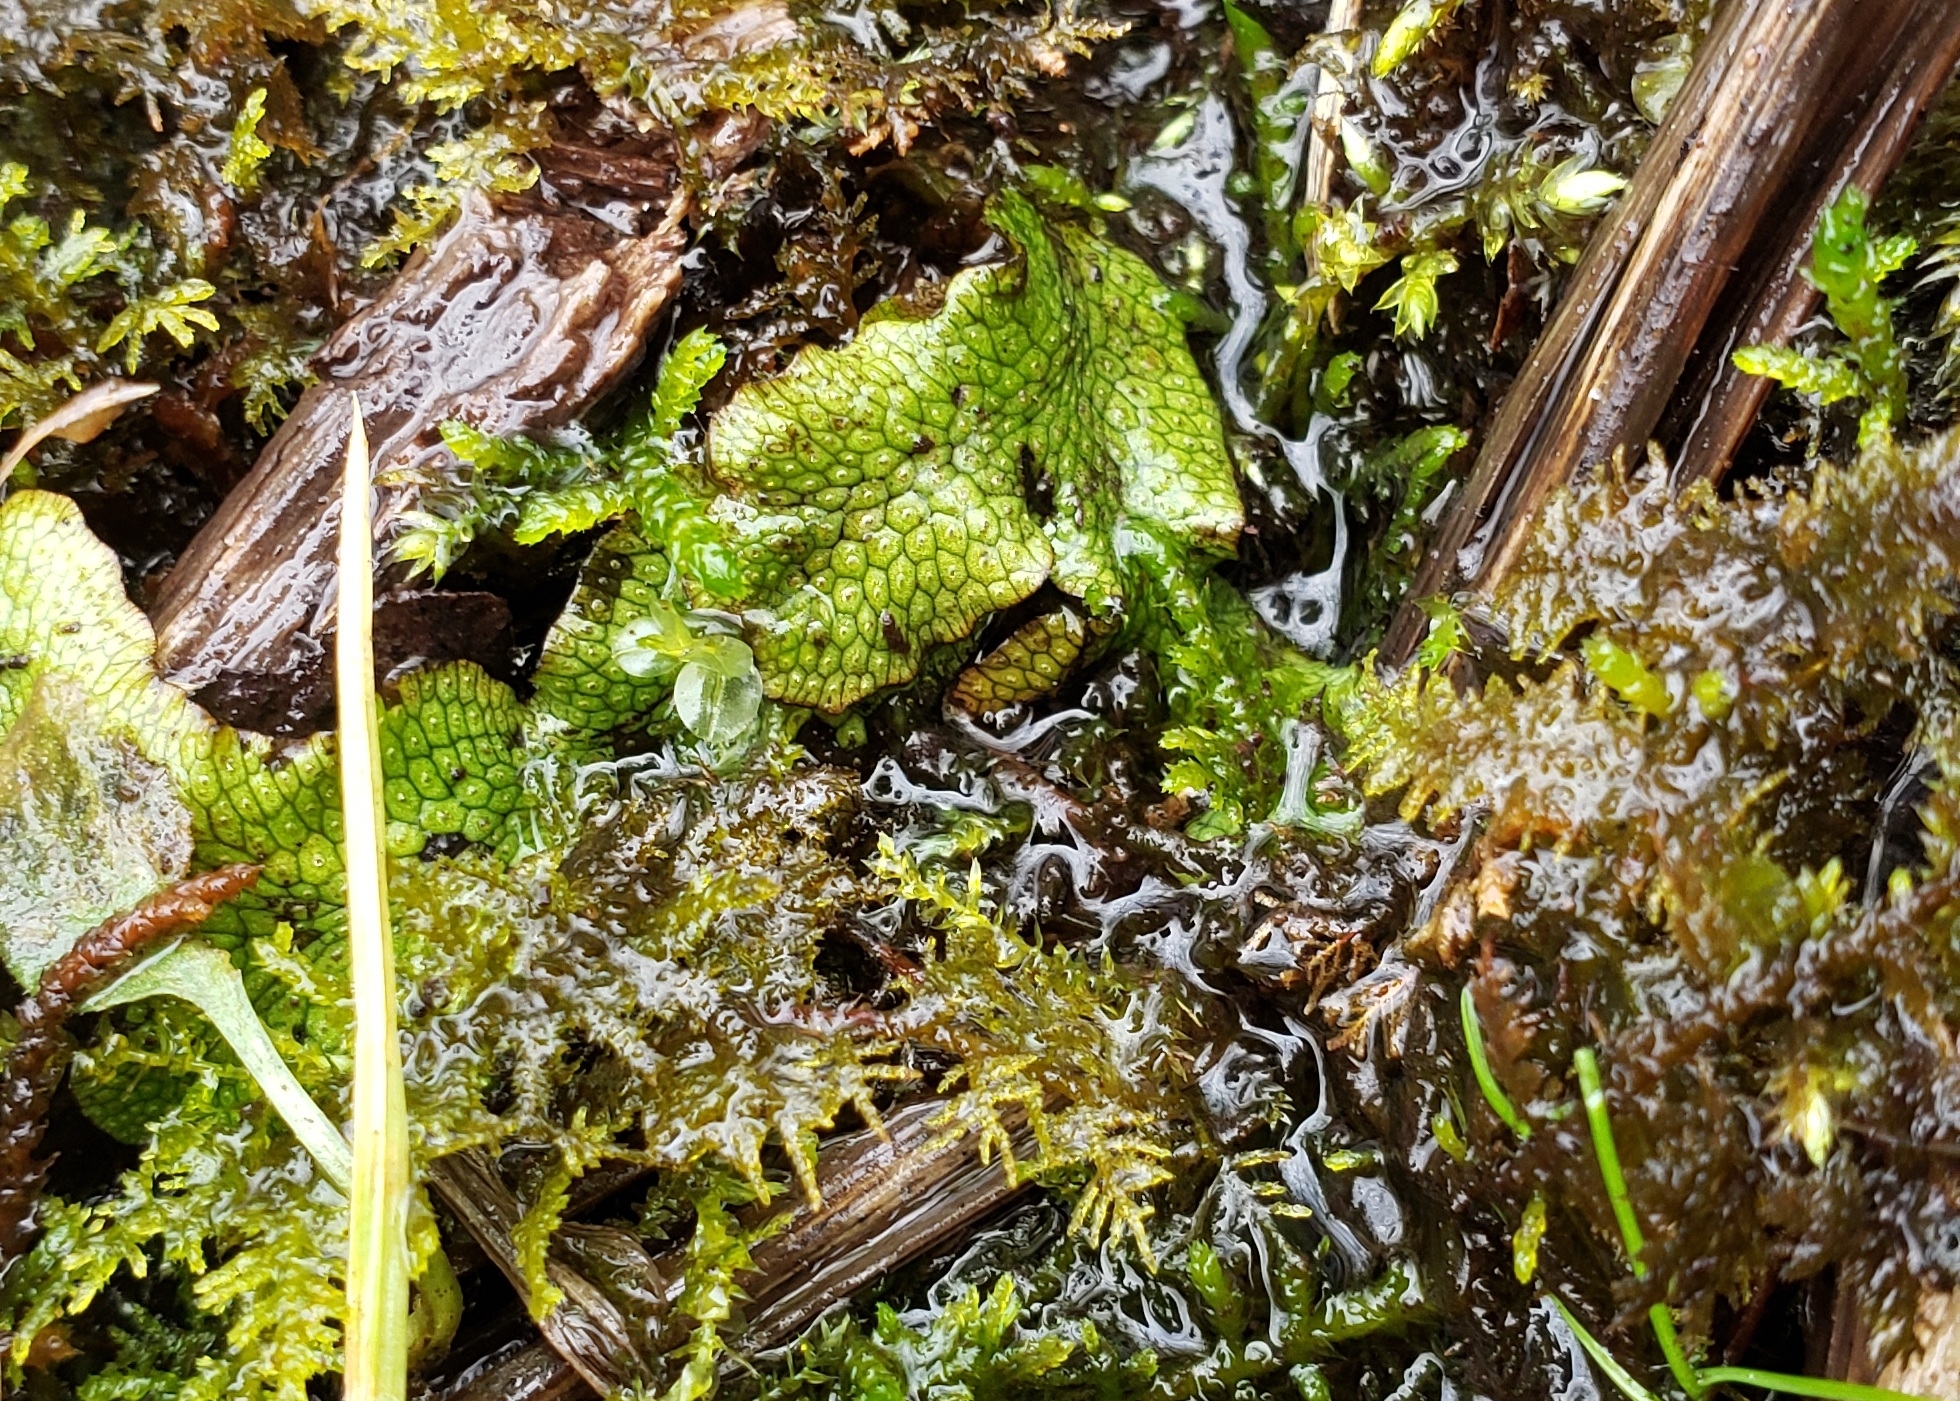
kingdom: Plantae
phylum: Marchantiophyta
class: Marchantiopsida
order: Marchantiales
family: Conocephalaceae
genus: Conocephalum
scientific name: Conocephalum salebrosum
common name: Cat-tongue liverwort
